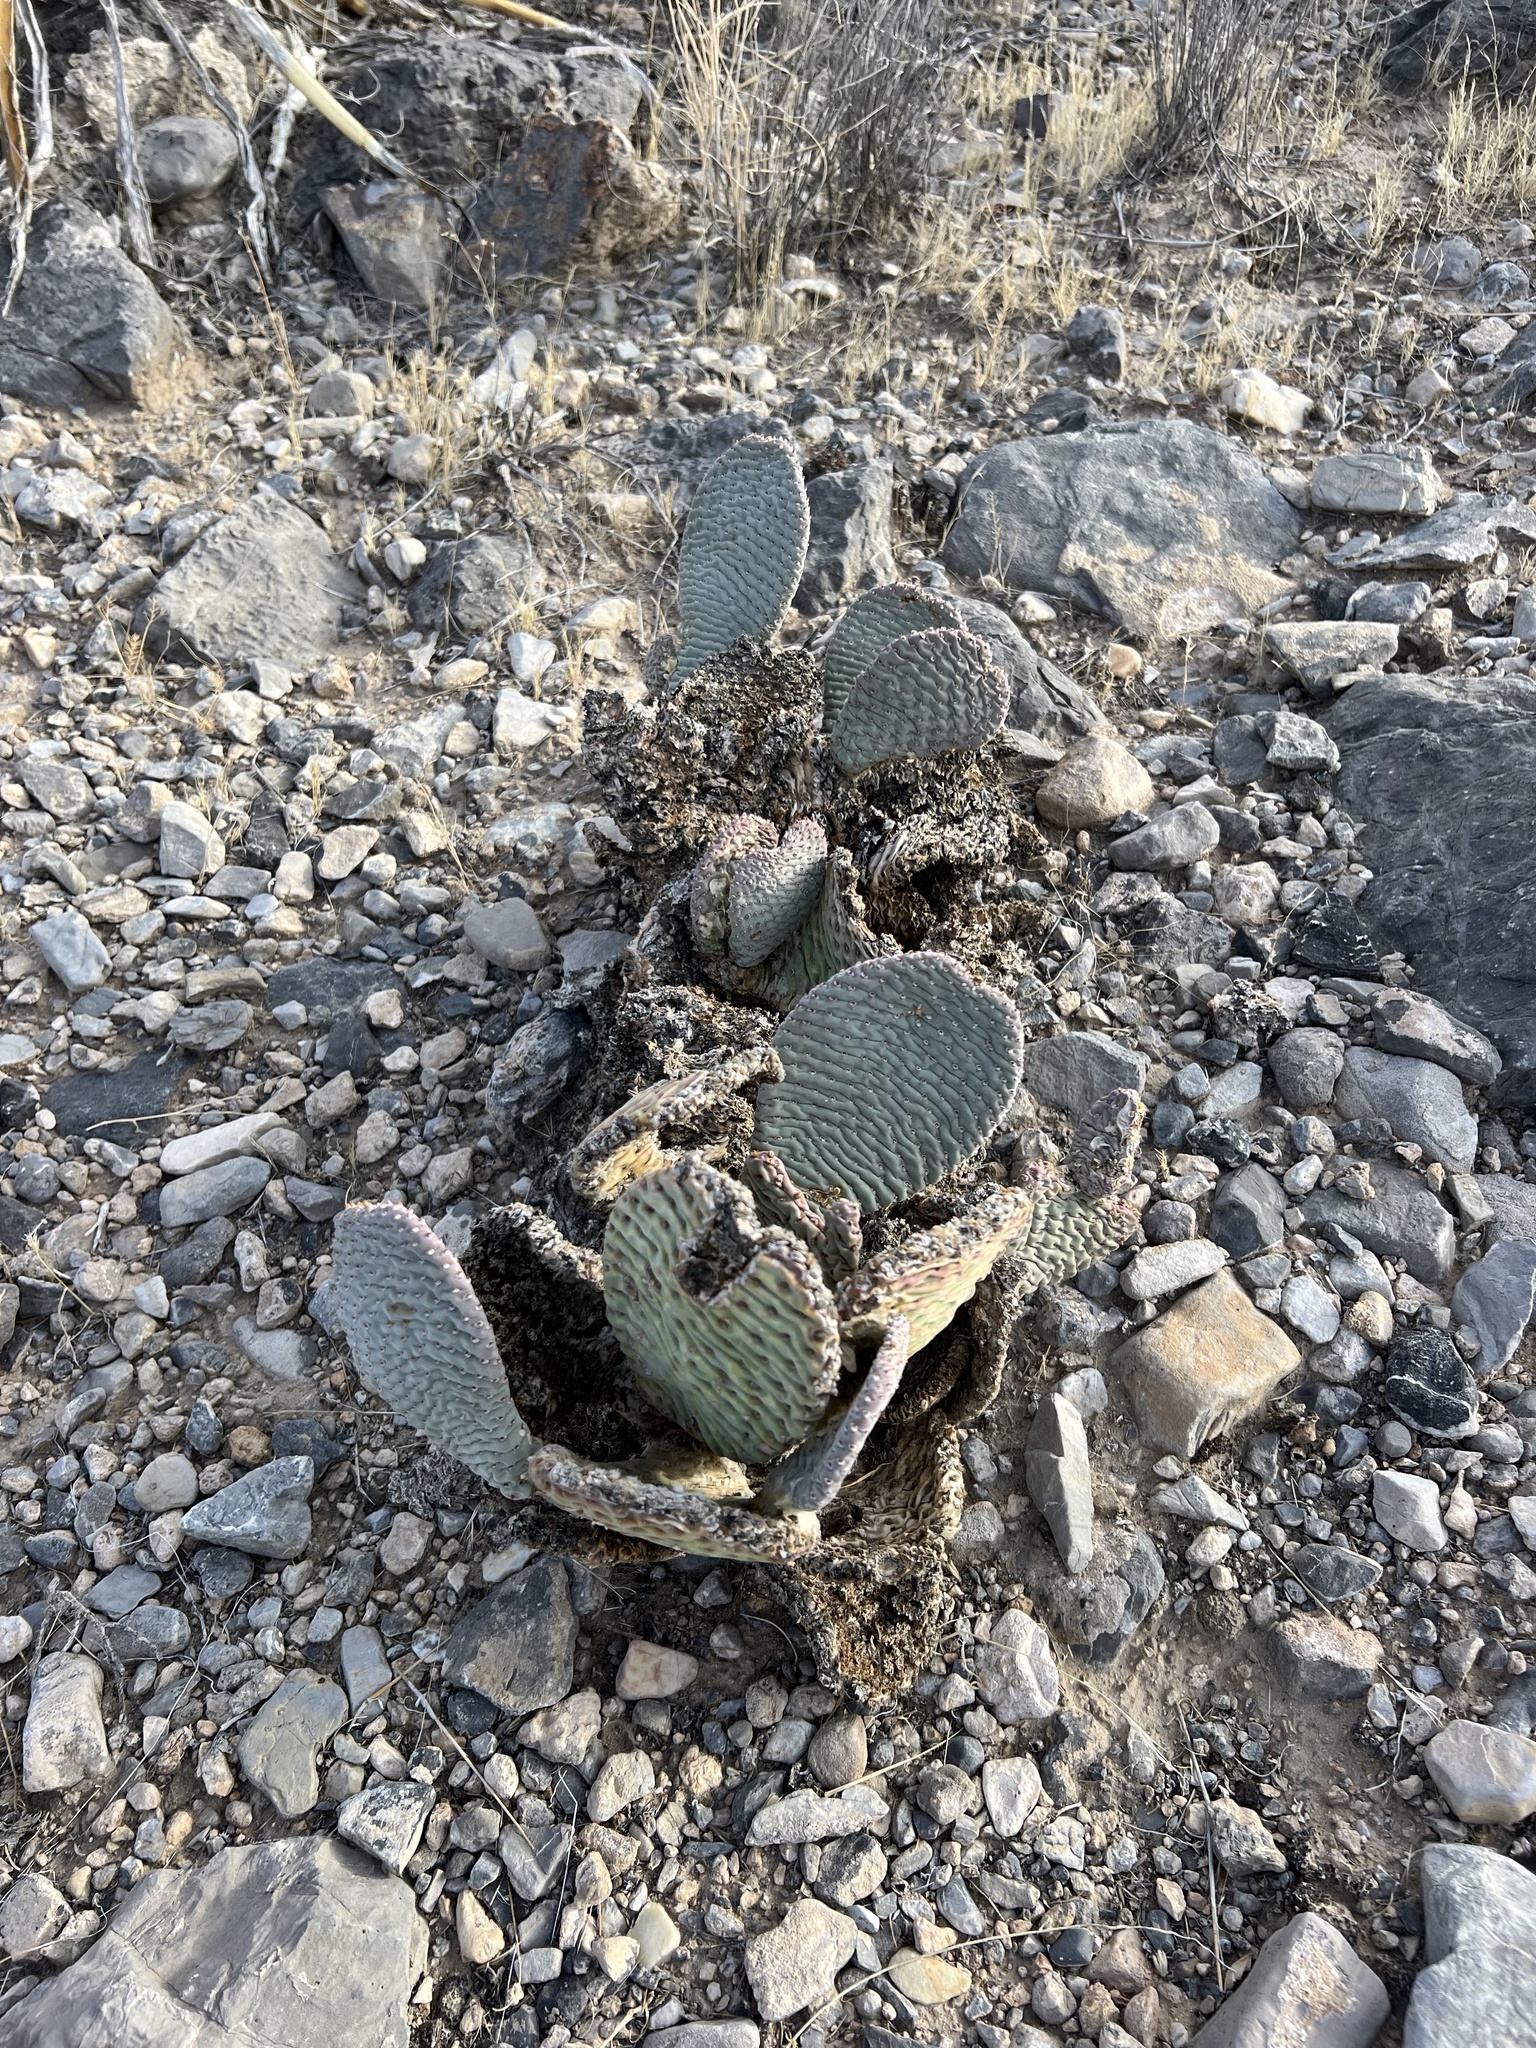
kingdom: Plantae
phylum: Tracheophyta
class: Magnoliopsida
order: Caryophyllales
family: Cactaceae
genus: Opuntia
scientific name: Opuntia basilaris
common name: Beavertail prickly-pear
